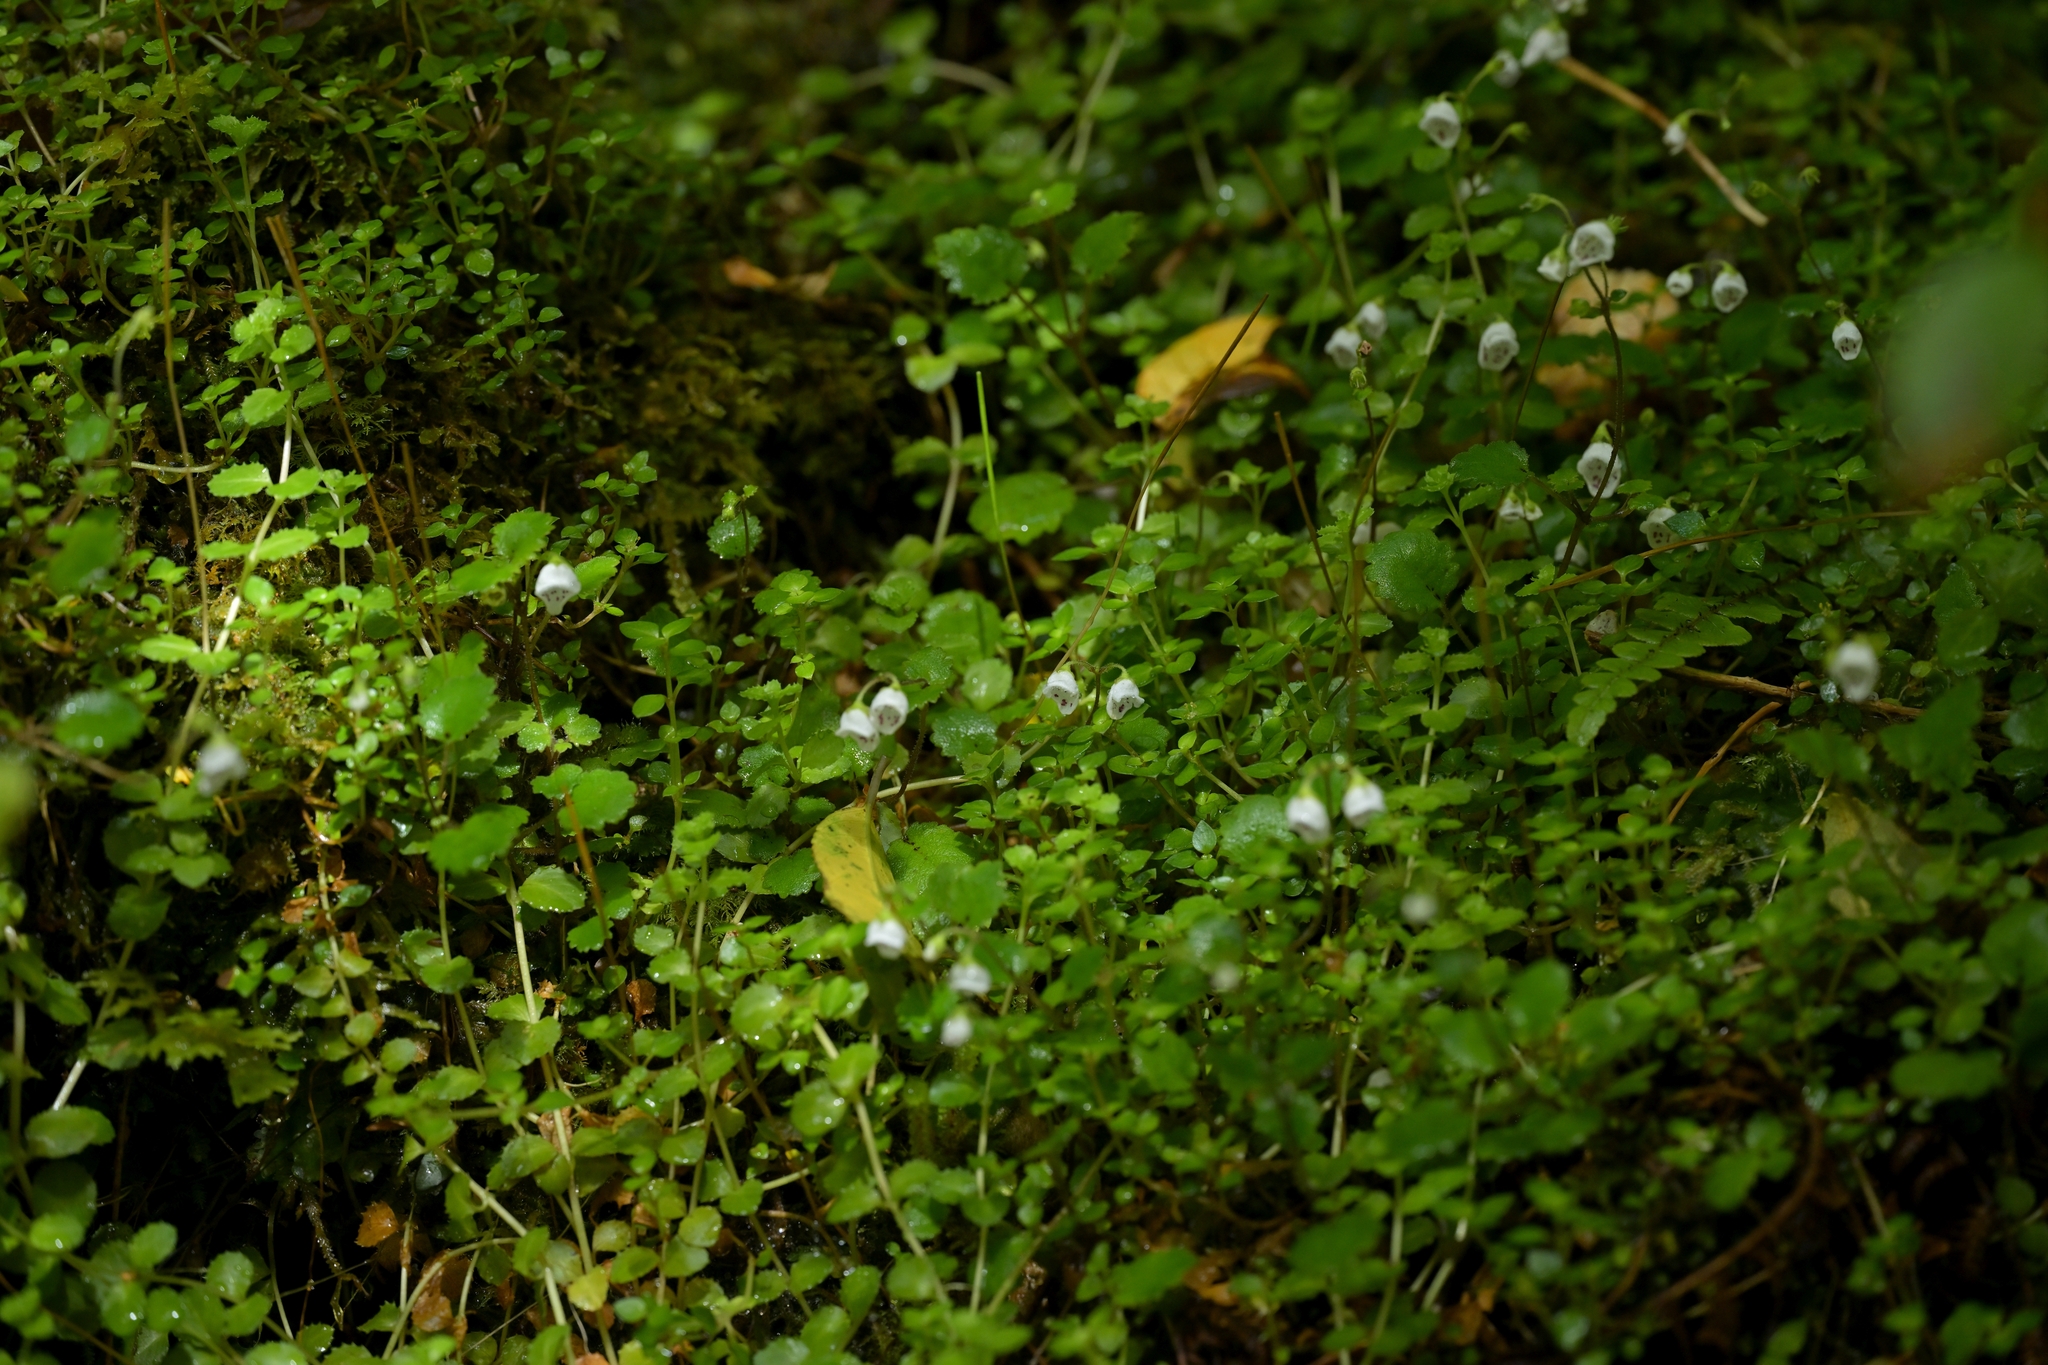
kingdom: Plantae
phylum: Tracheophyta
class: Magnoliopsida
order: Lamiales
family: Calceolariaceae
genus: Jovellana
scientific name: Jovellana repens
